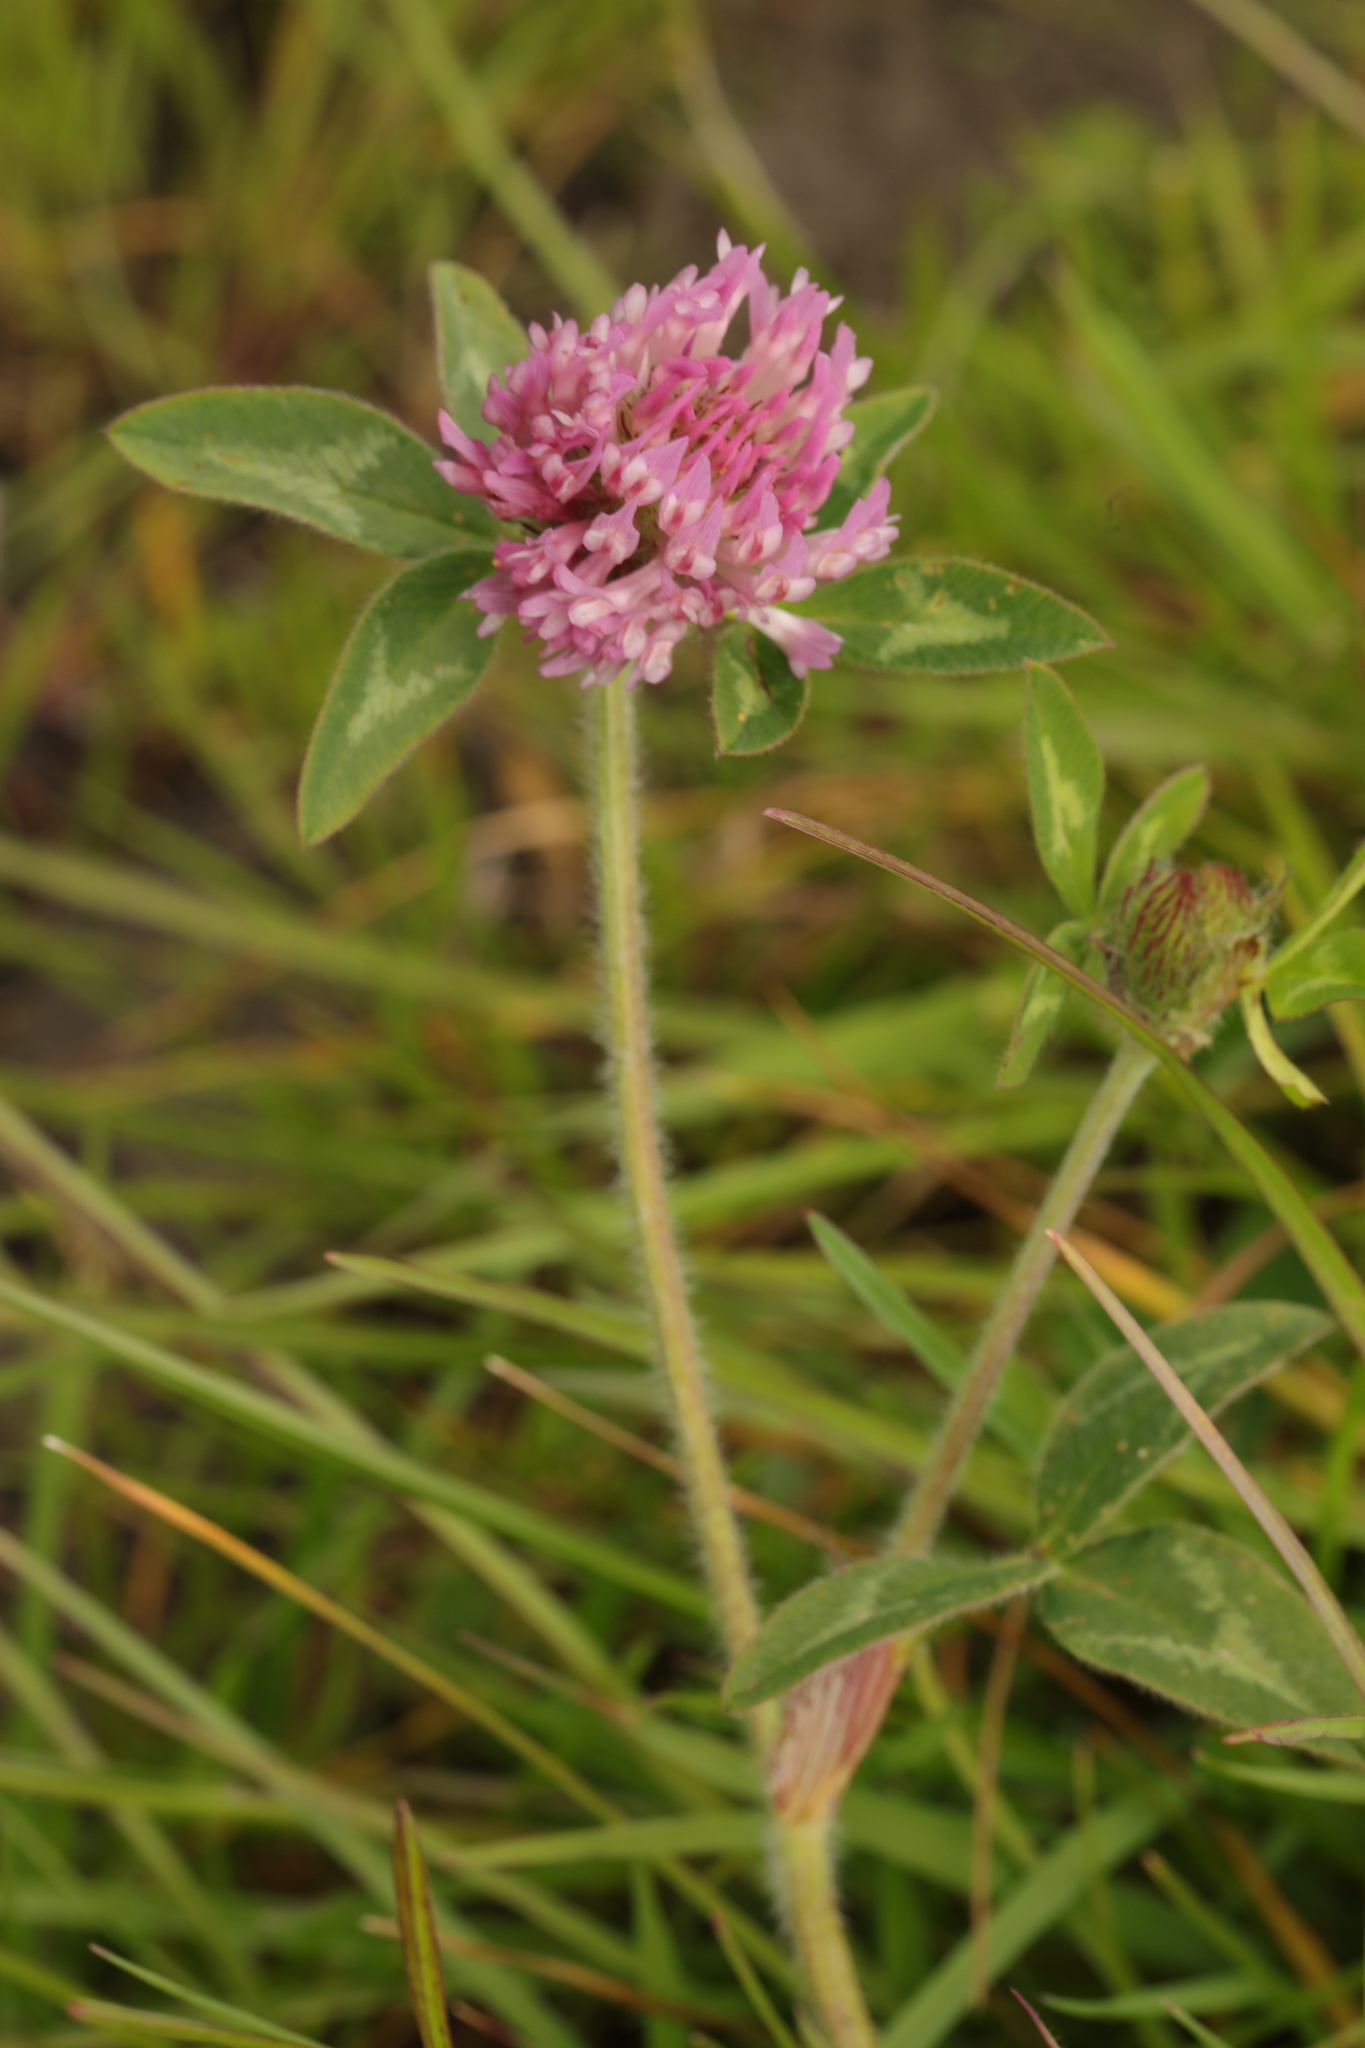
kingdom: Plantae
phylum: Tracheophyta
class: Magnoliopsida
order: Fabales
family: Fabaceae
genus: Trifolium
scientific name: Trifolium pratense
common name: Red clover
